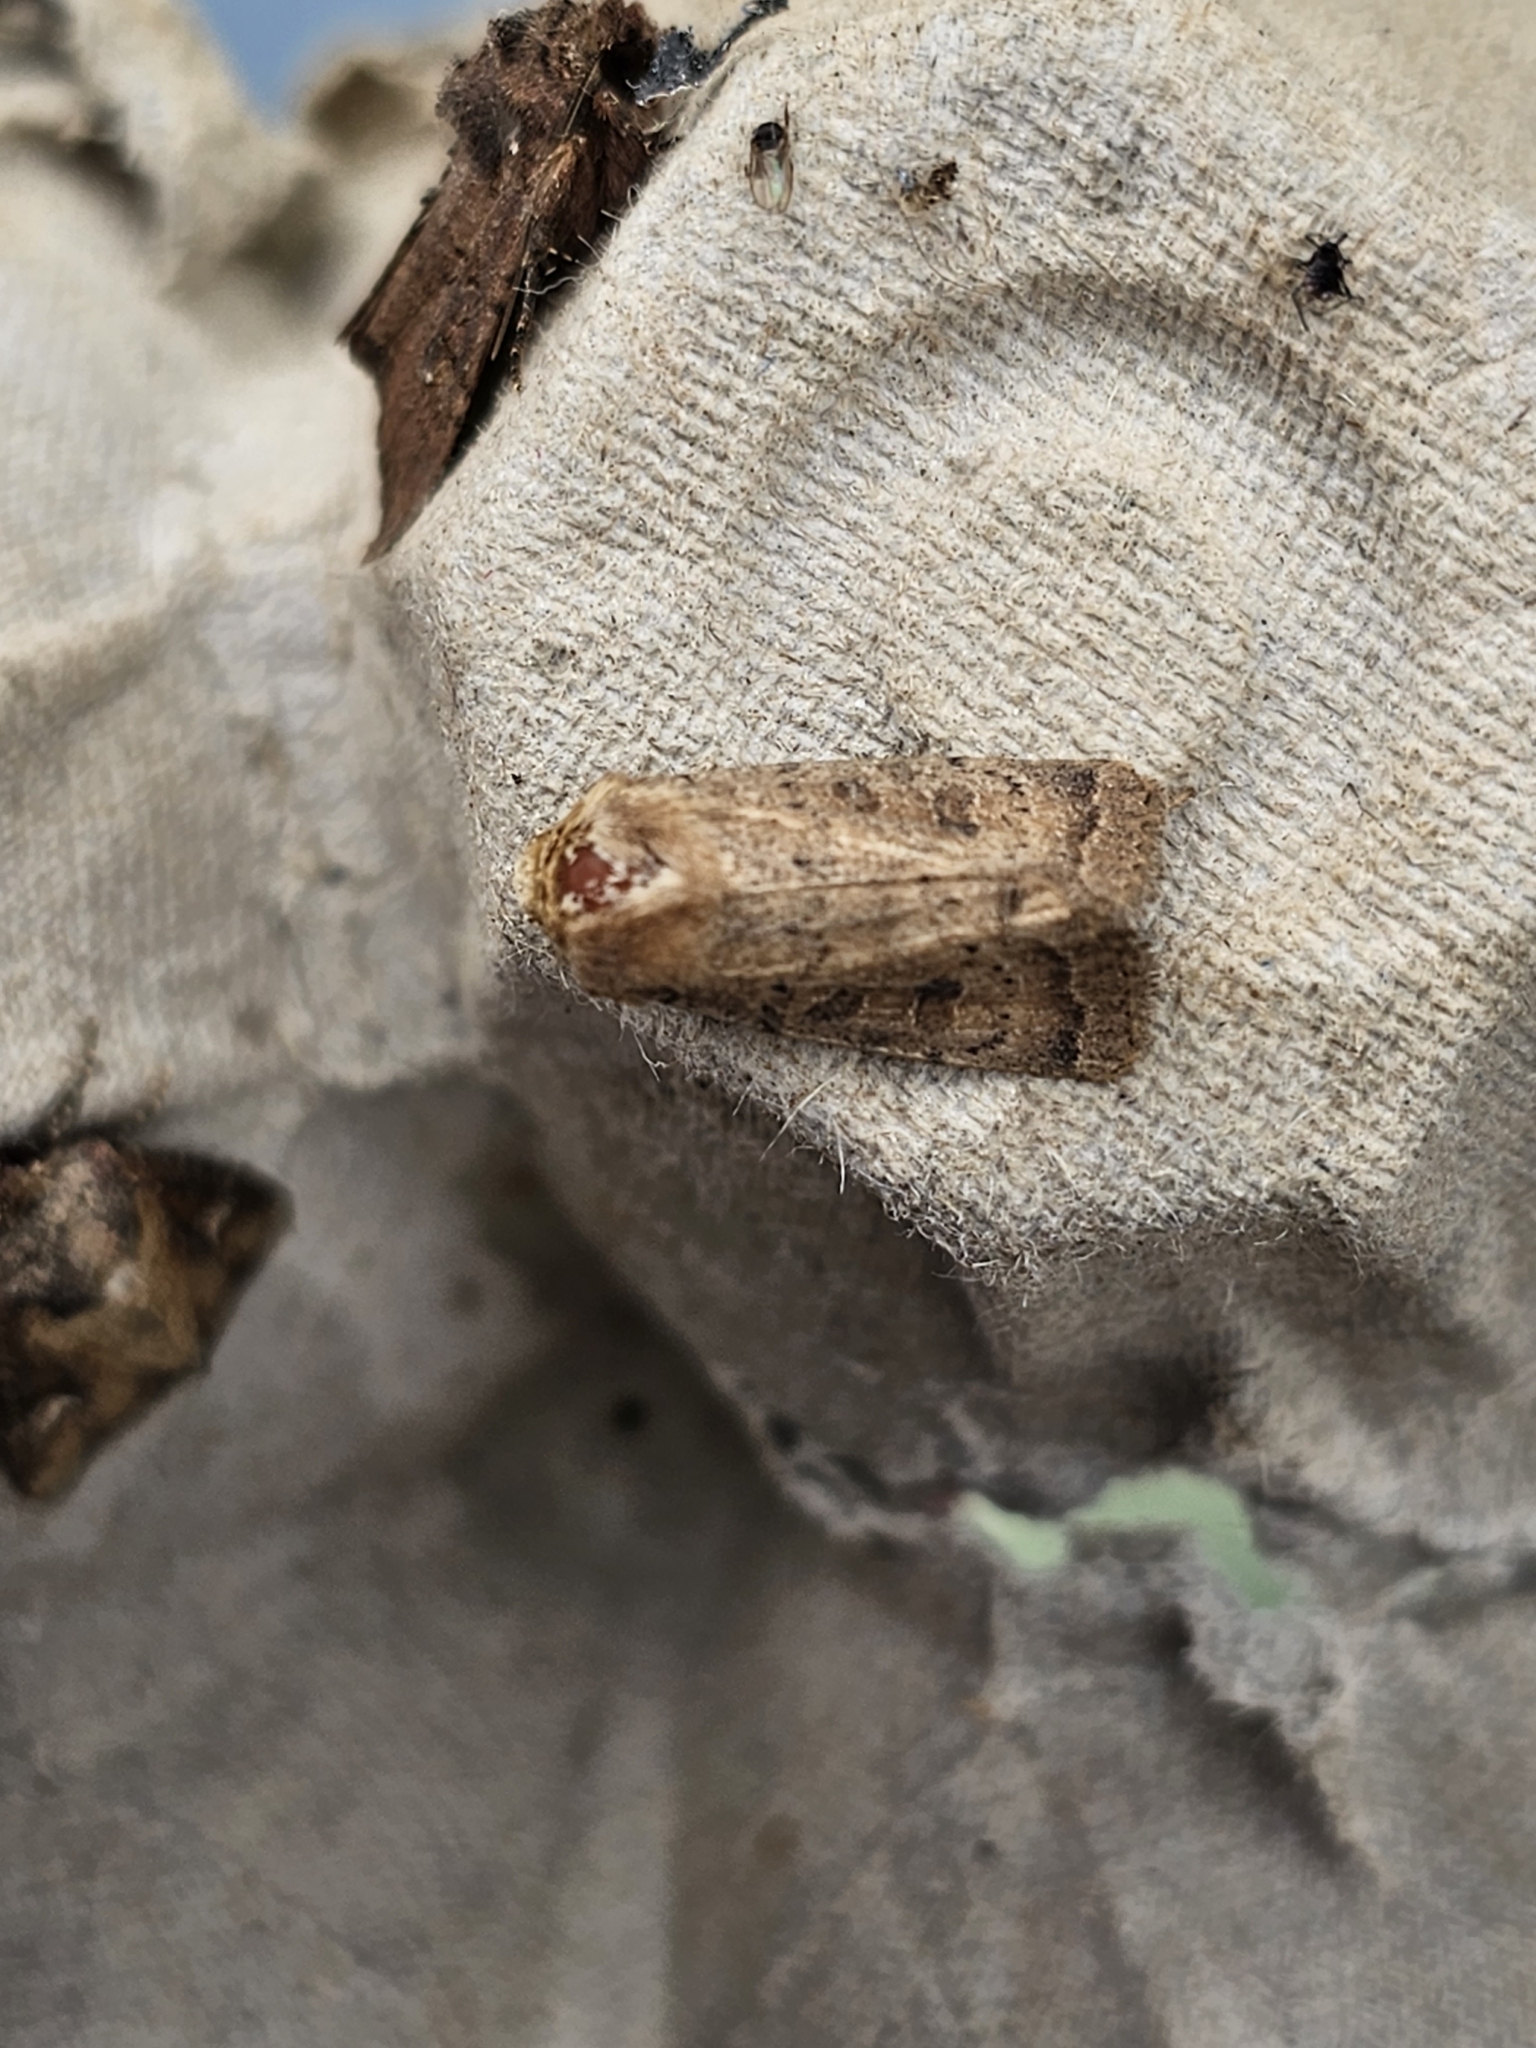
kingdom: Animalia
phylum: Arthropoda
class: Insecta
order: Lepidoptera
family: Noctuidae
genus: Hoplodrina
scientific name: Hoplodrina octogenaria
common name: Uncertain
